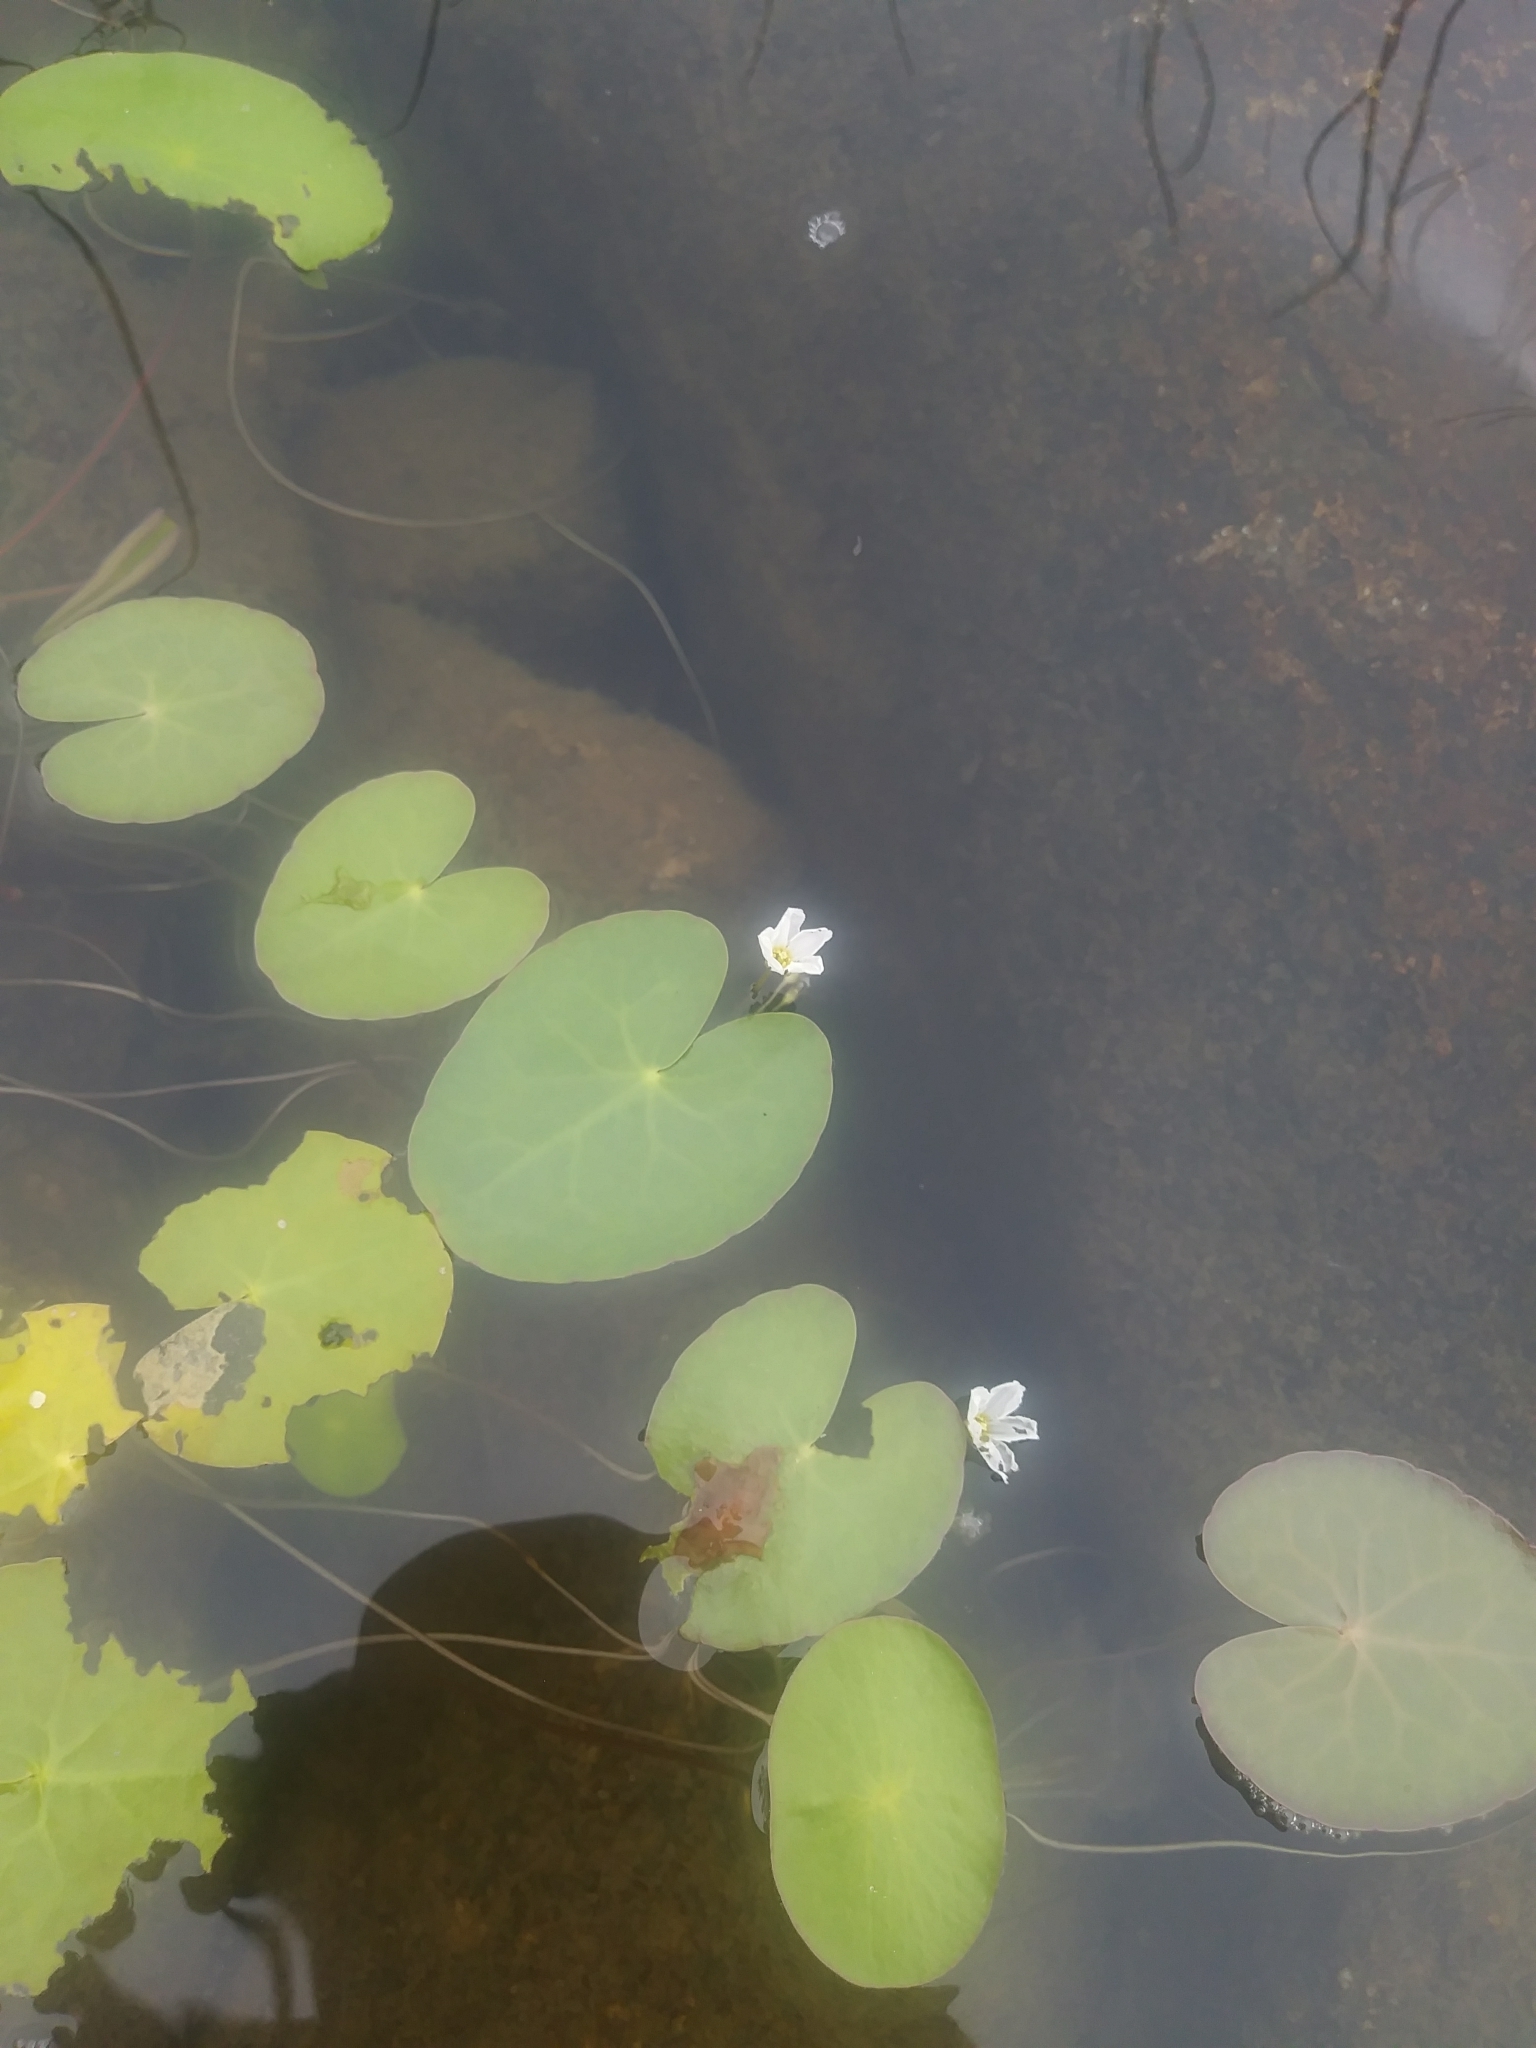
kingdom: Plantae
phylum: Tracheophyta
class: Magnoliopsida
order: Asterales
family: Menyanthaceae
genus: Nymphoides
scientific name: Nymphoides cordata
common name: Eight-angled floatingheart
